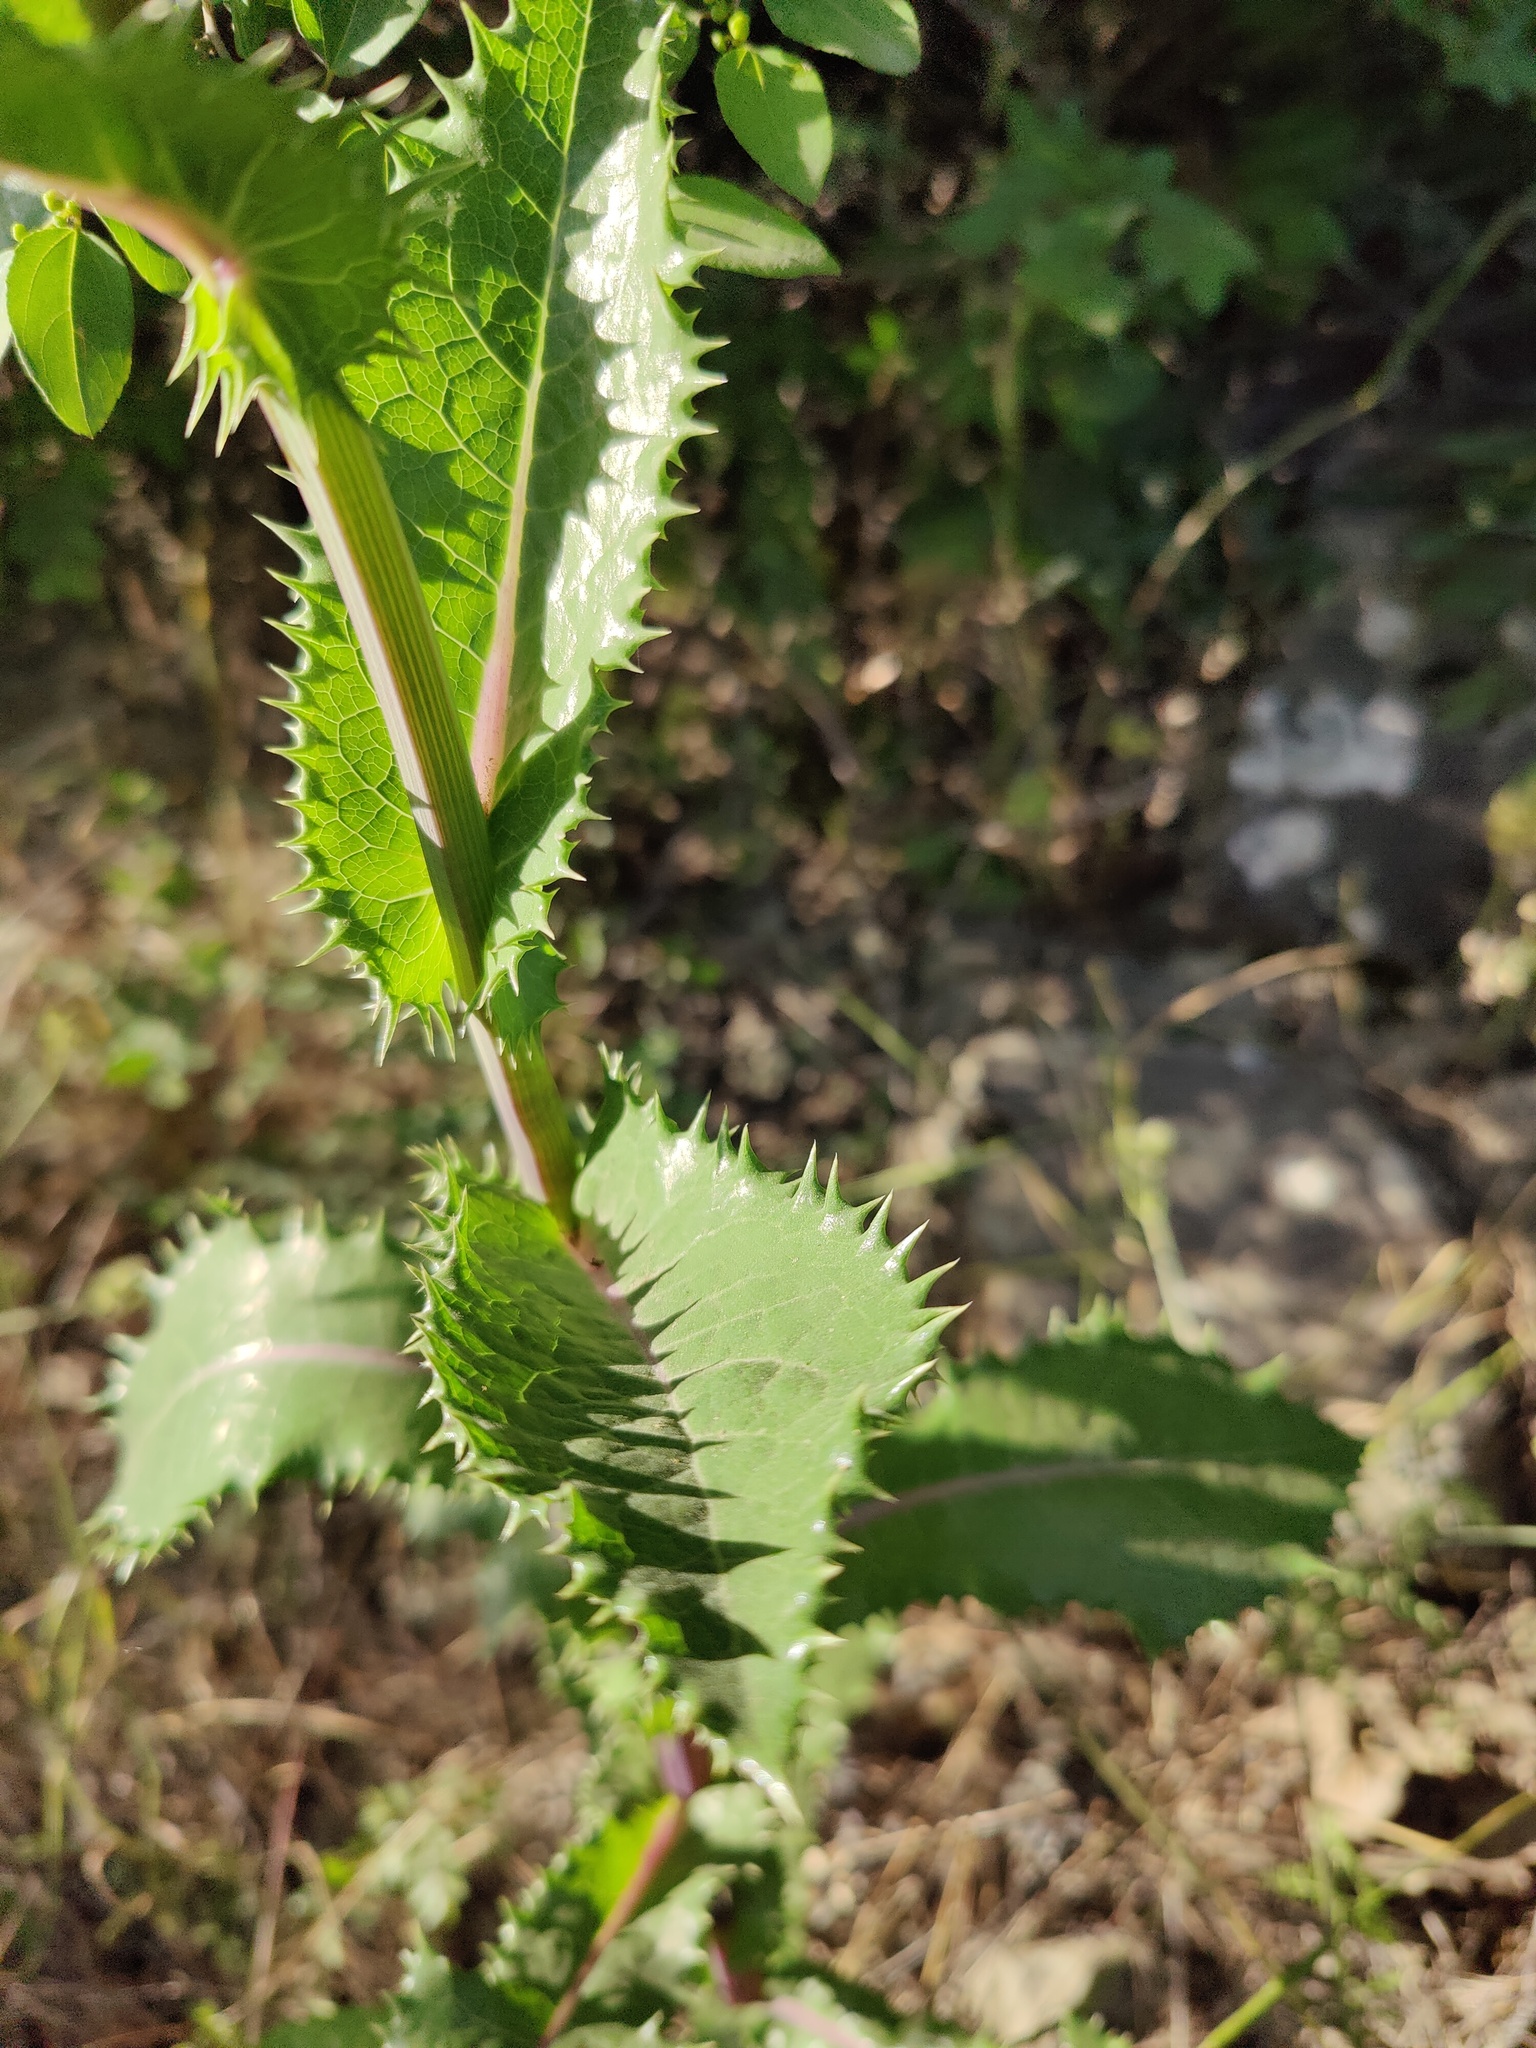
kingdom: Plantae
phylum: Tracheophyta
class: Magnoliopsida
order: Asterales
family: Asteraceae
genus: Sonchus
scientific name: Sonchus asper
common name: Prickly sow-thistle
